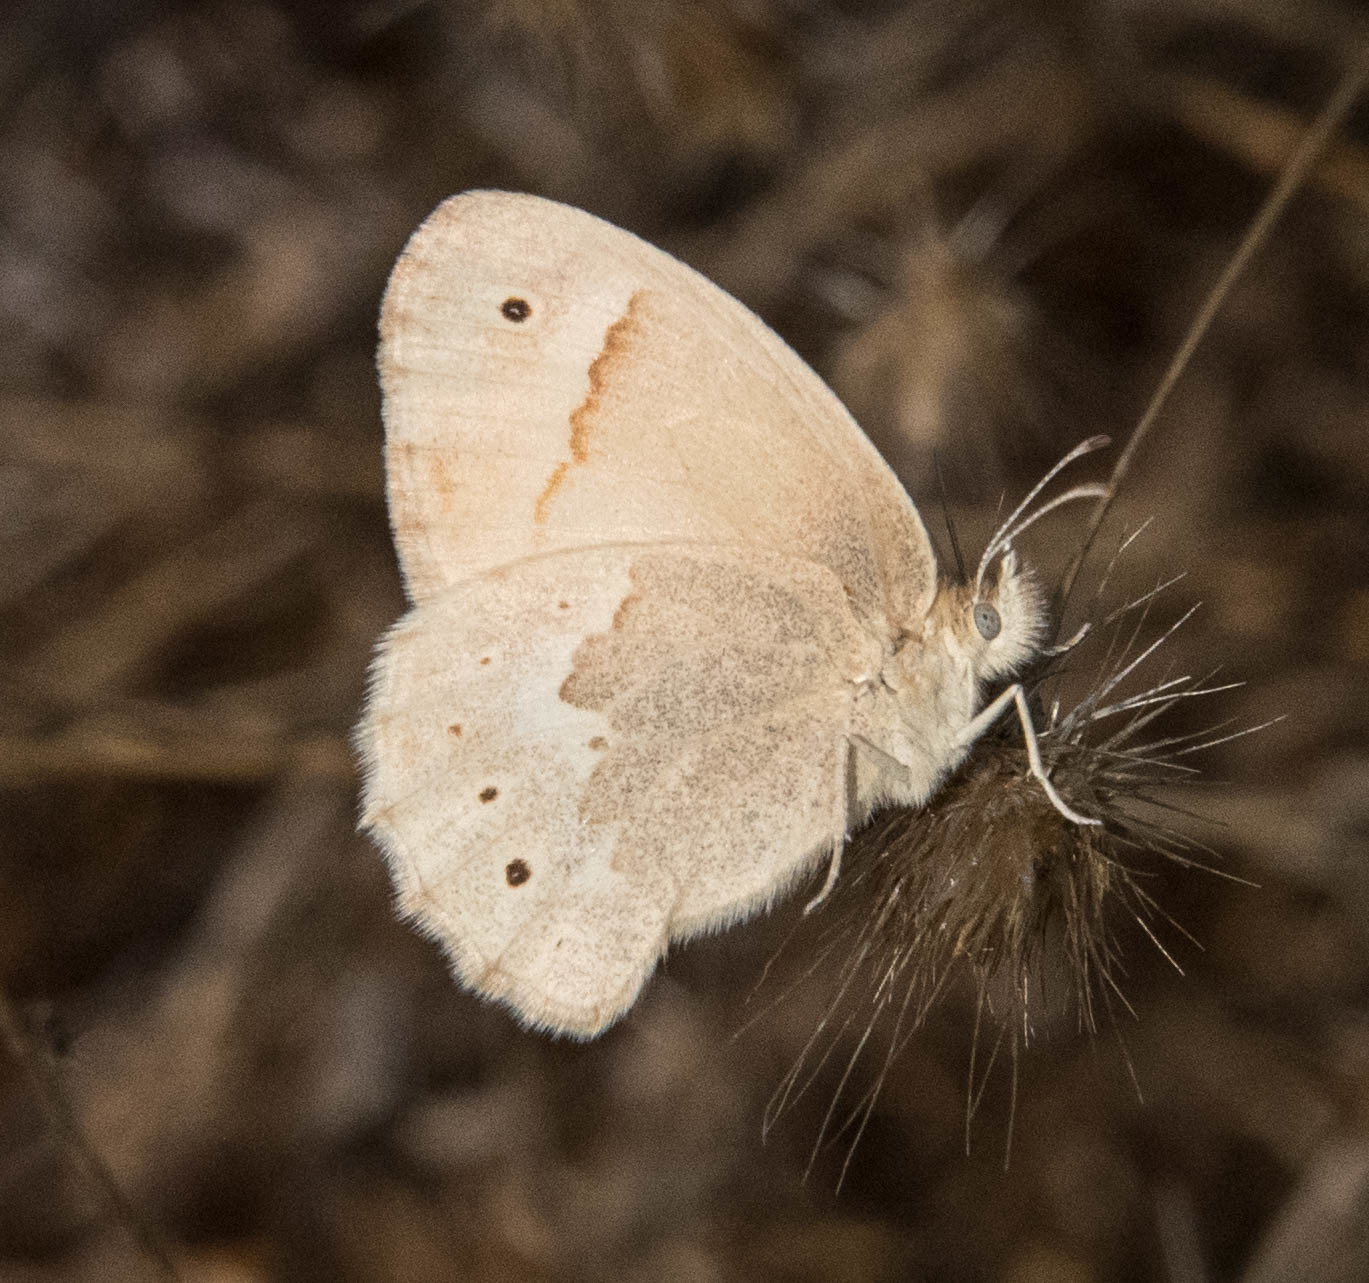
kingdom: Animalia
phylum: Arthropoda
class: Insecta
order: Lepidoptera
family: Nymphalidae
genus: Coenonympha
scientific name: Coenonympha california
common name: Common ringlet
